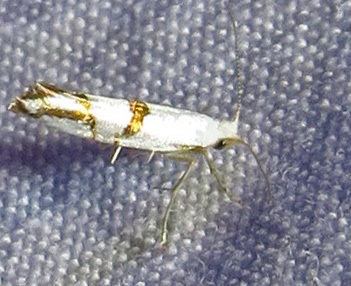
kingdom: Animalia
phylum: Arthropoda
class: Insecta
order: Lepidoptera
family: Argyresthiidae
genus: Argyresthia
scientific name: Argyresthia oreasella
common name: Cherry shoot borer moth
